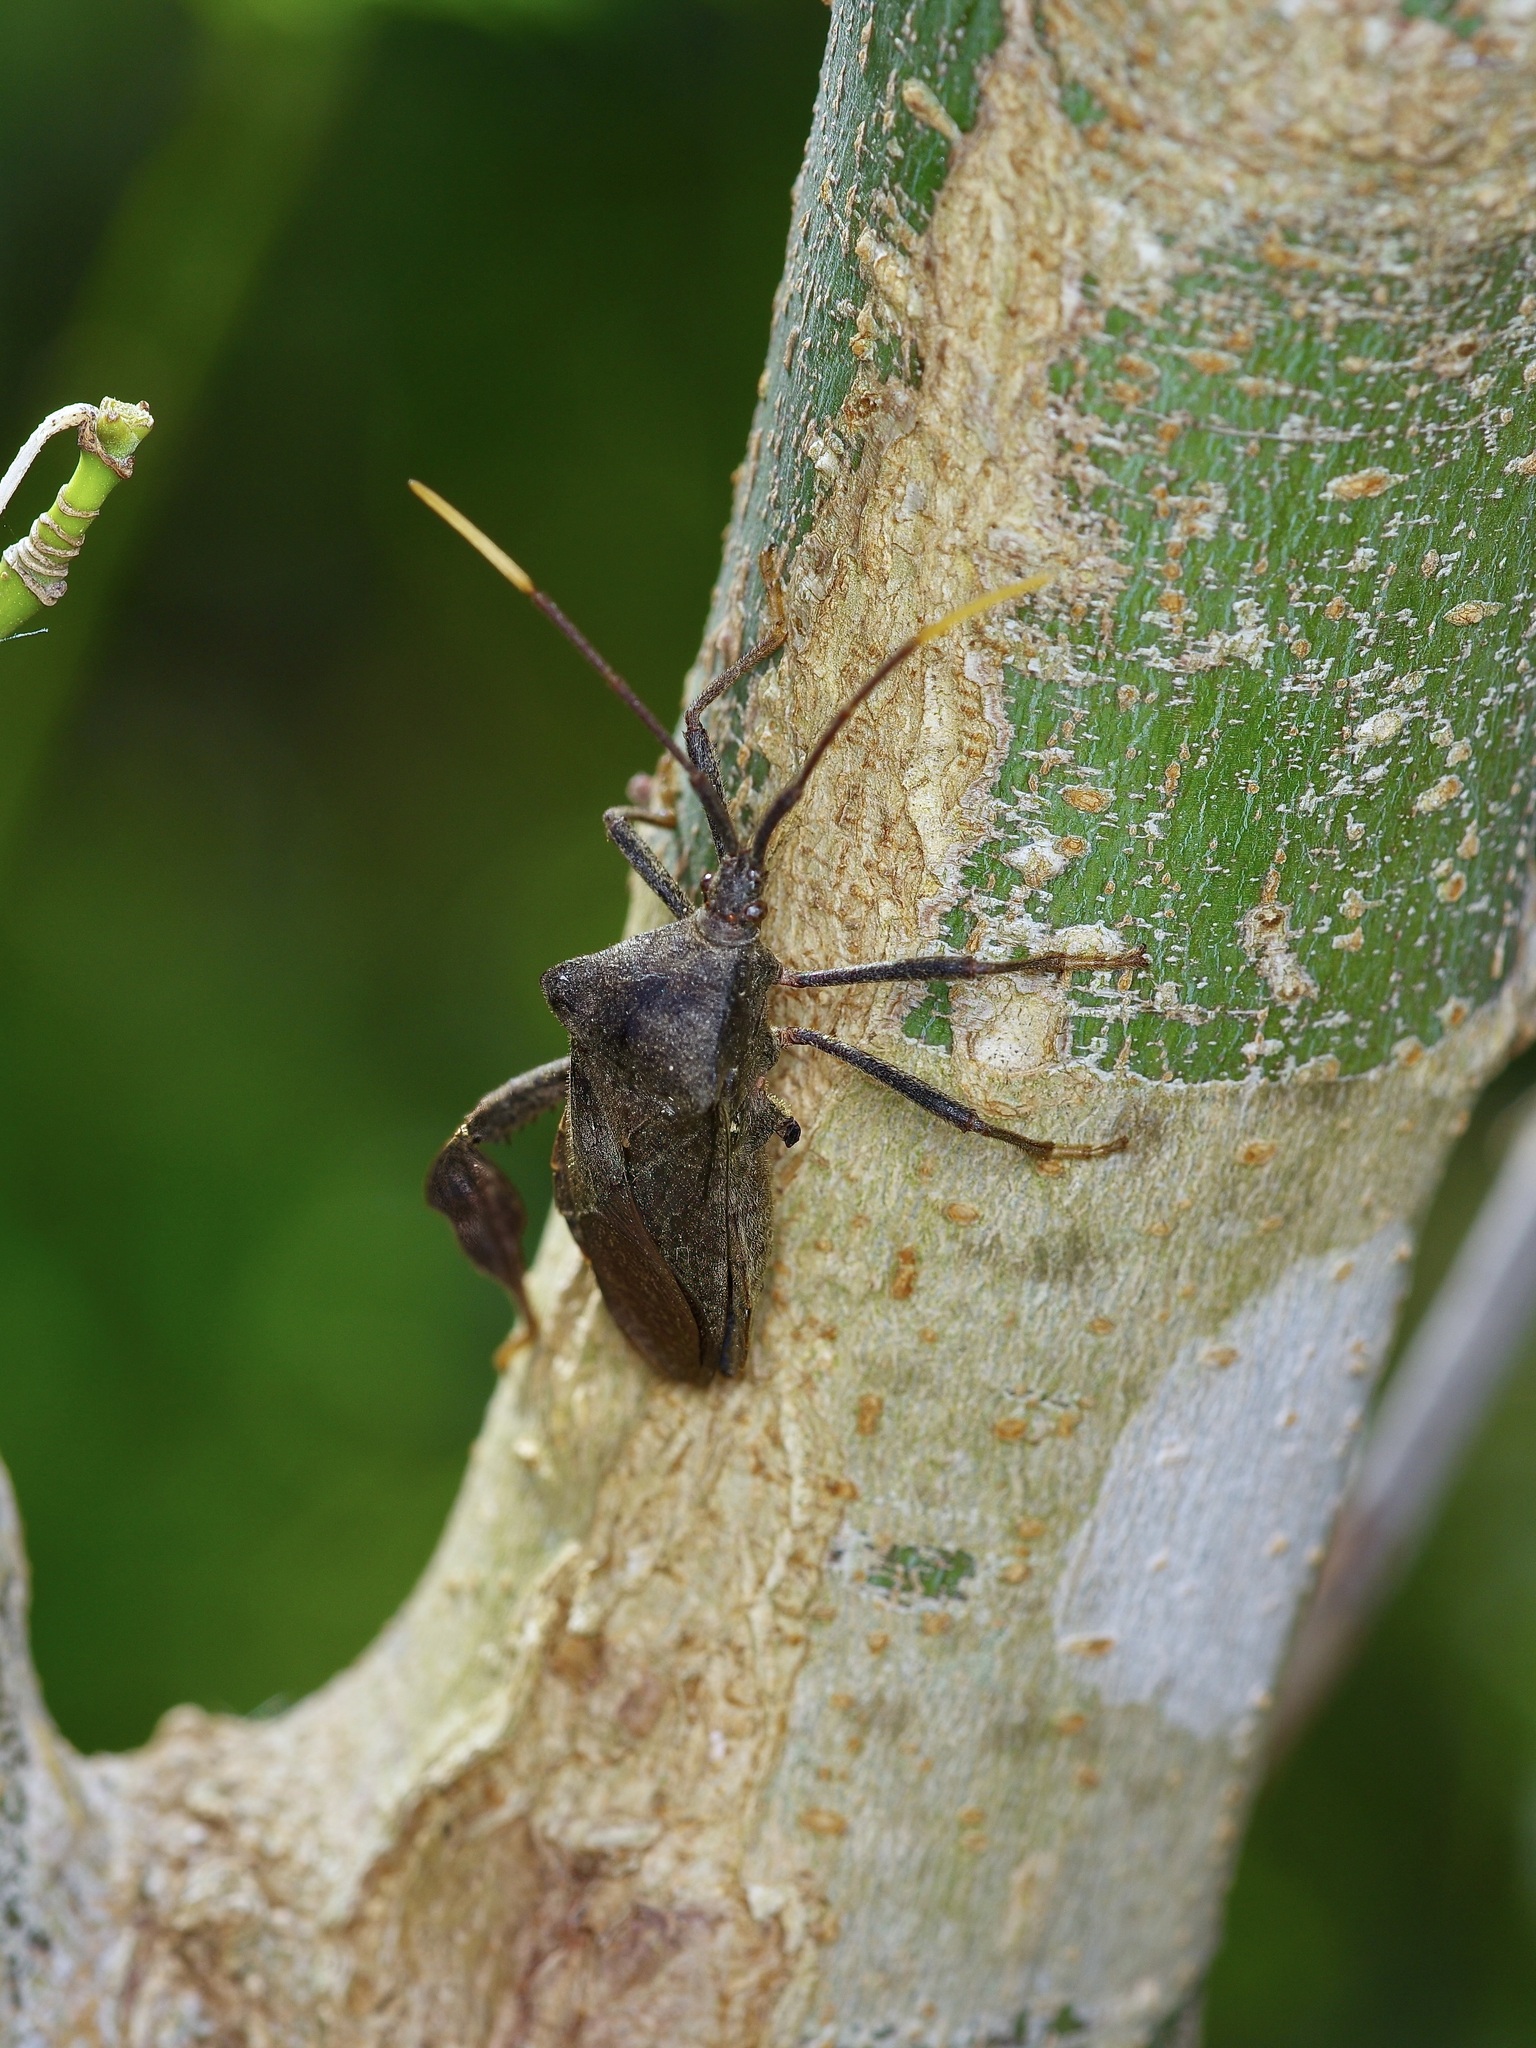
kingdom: Animalia
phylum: Arthropoda
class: Insecta
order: Hemiptera
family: Coreidae
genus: Acanthocephala
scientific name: Acanthocephala terminalis
